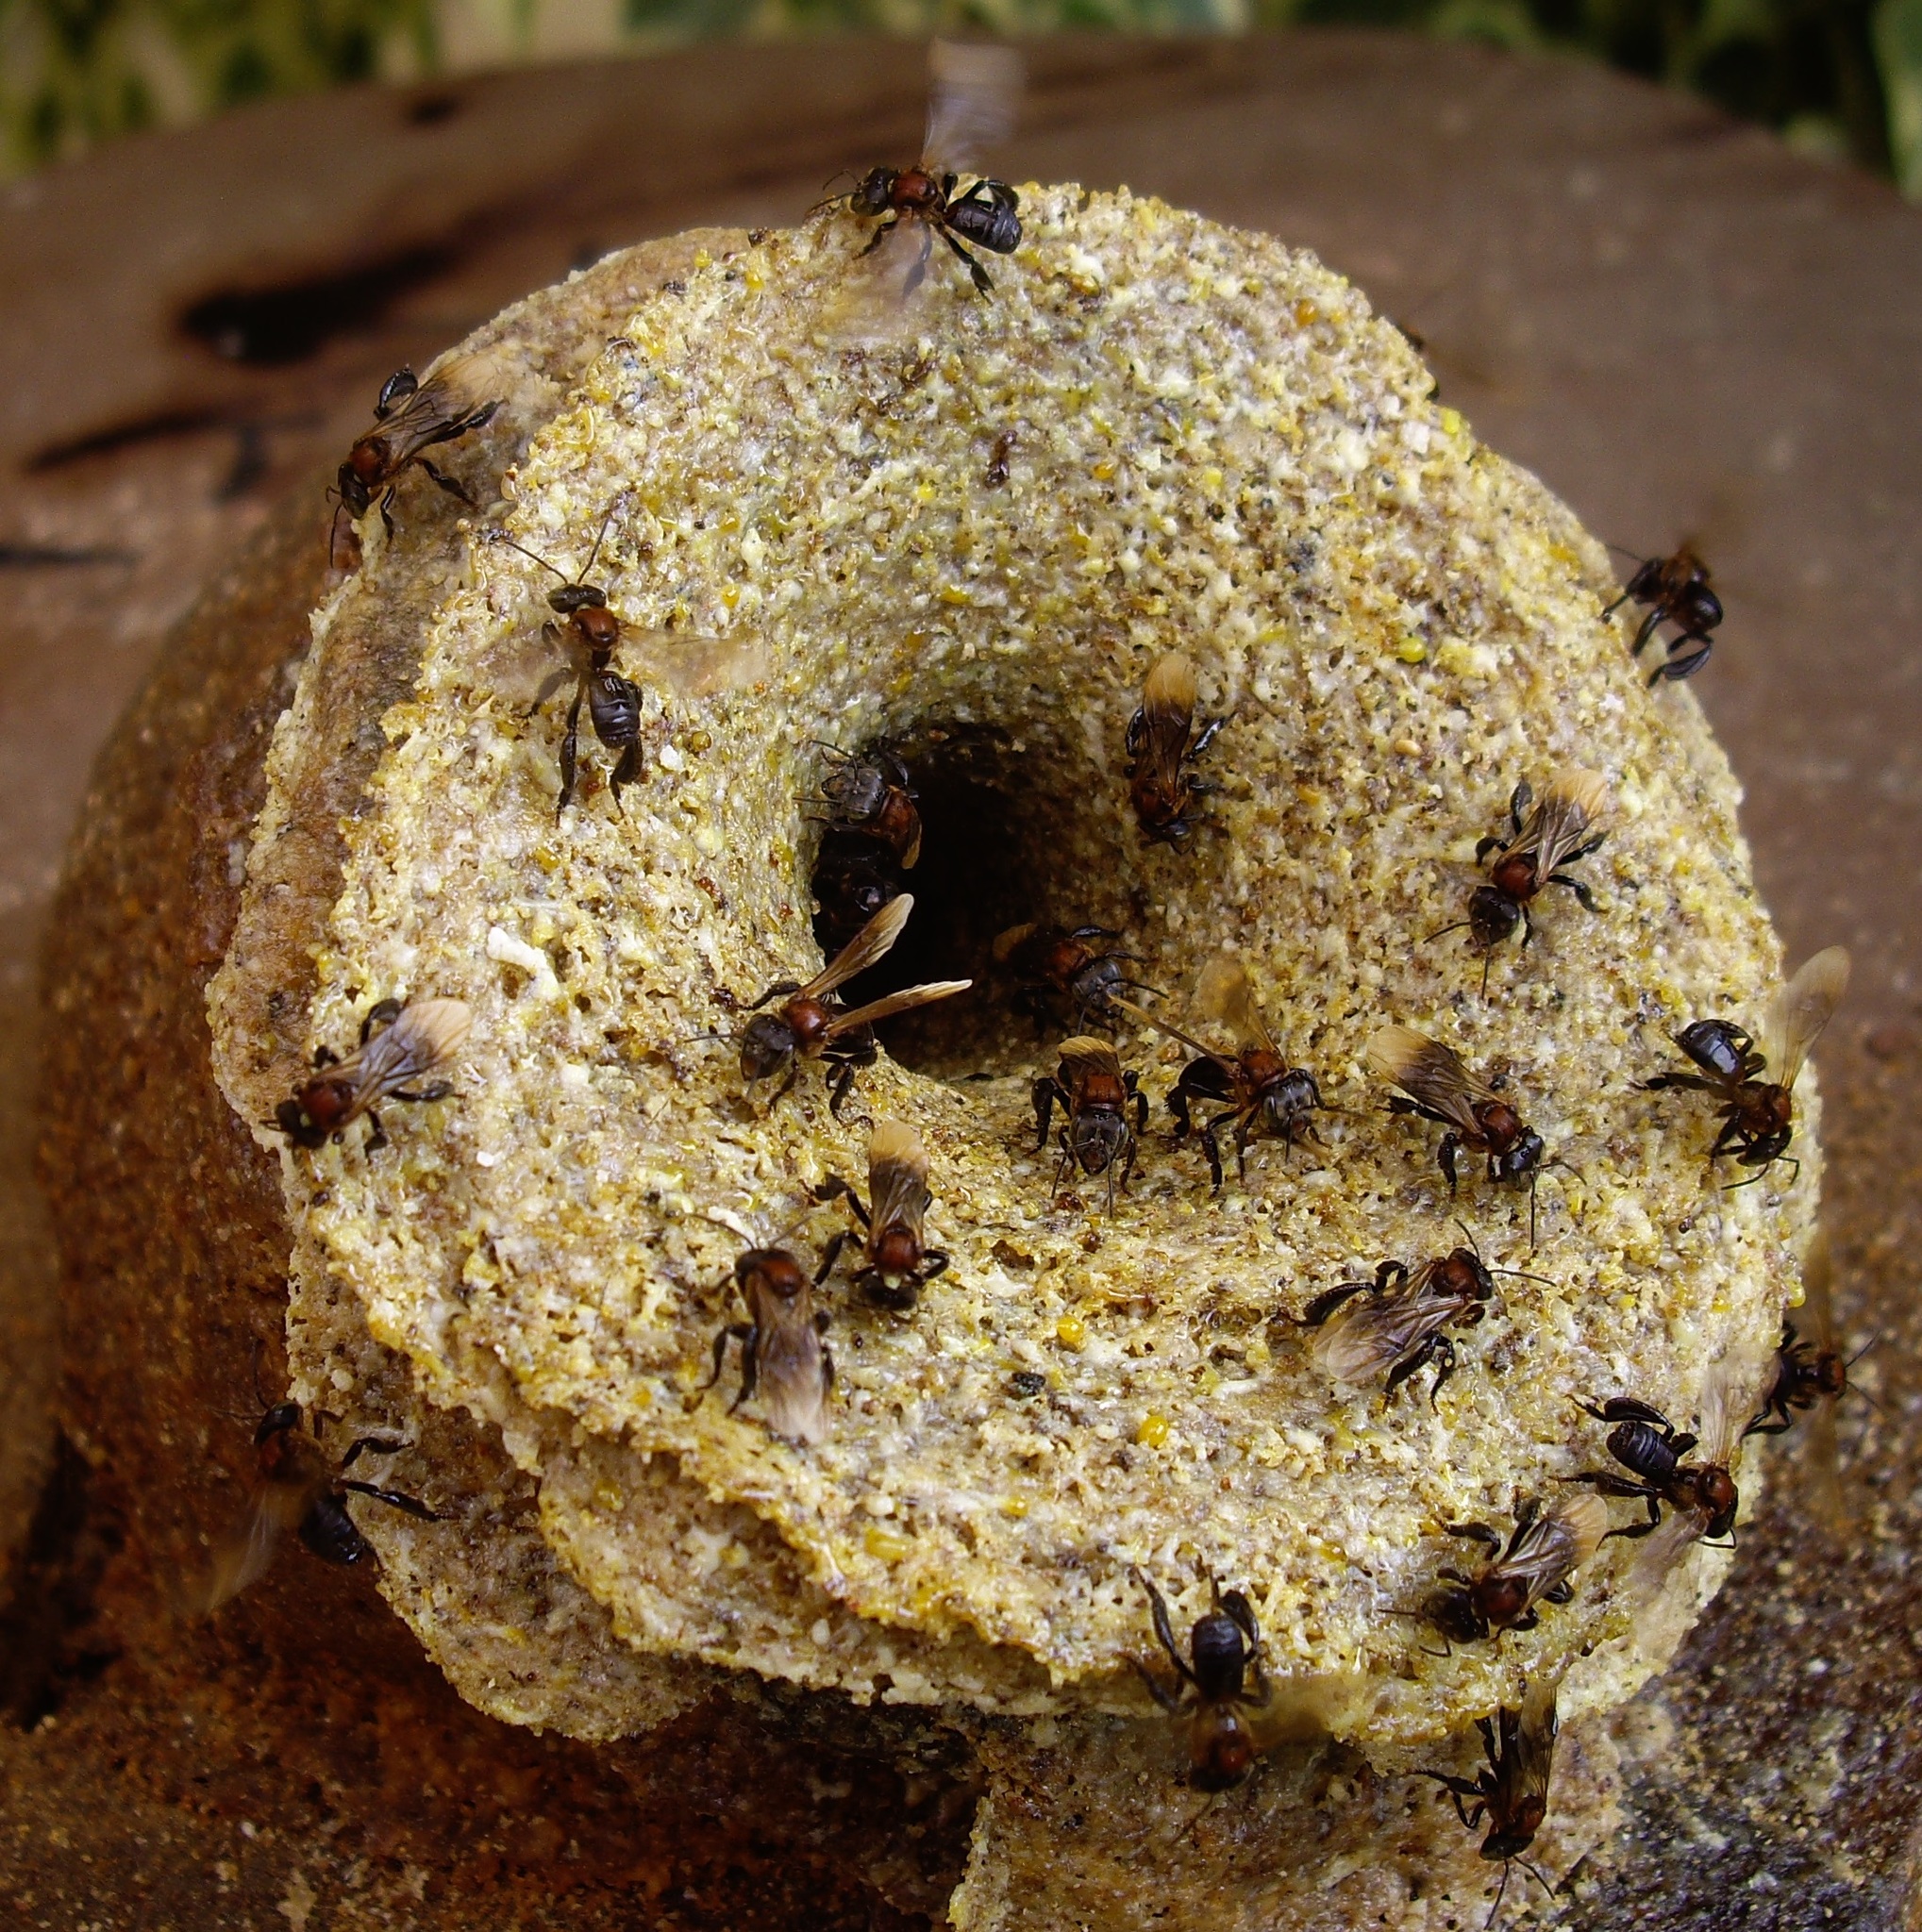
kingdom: Animalia
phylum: Arthropoda
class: Insecta
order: Hymenoptera
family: Apidae
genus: Geniotrigona
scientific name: Geniotrigona thoracica
